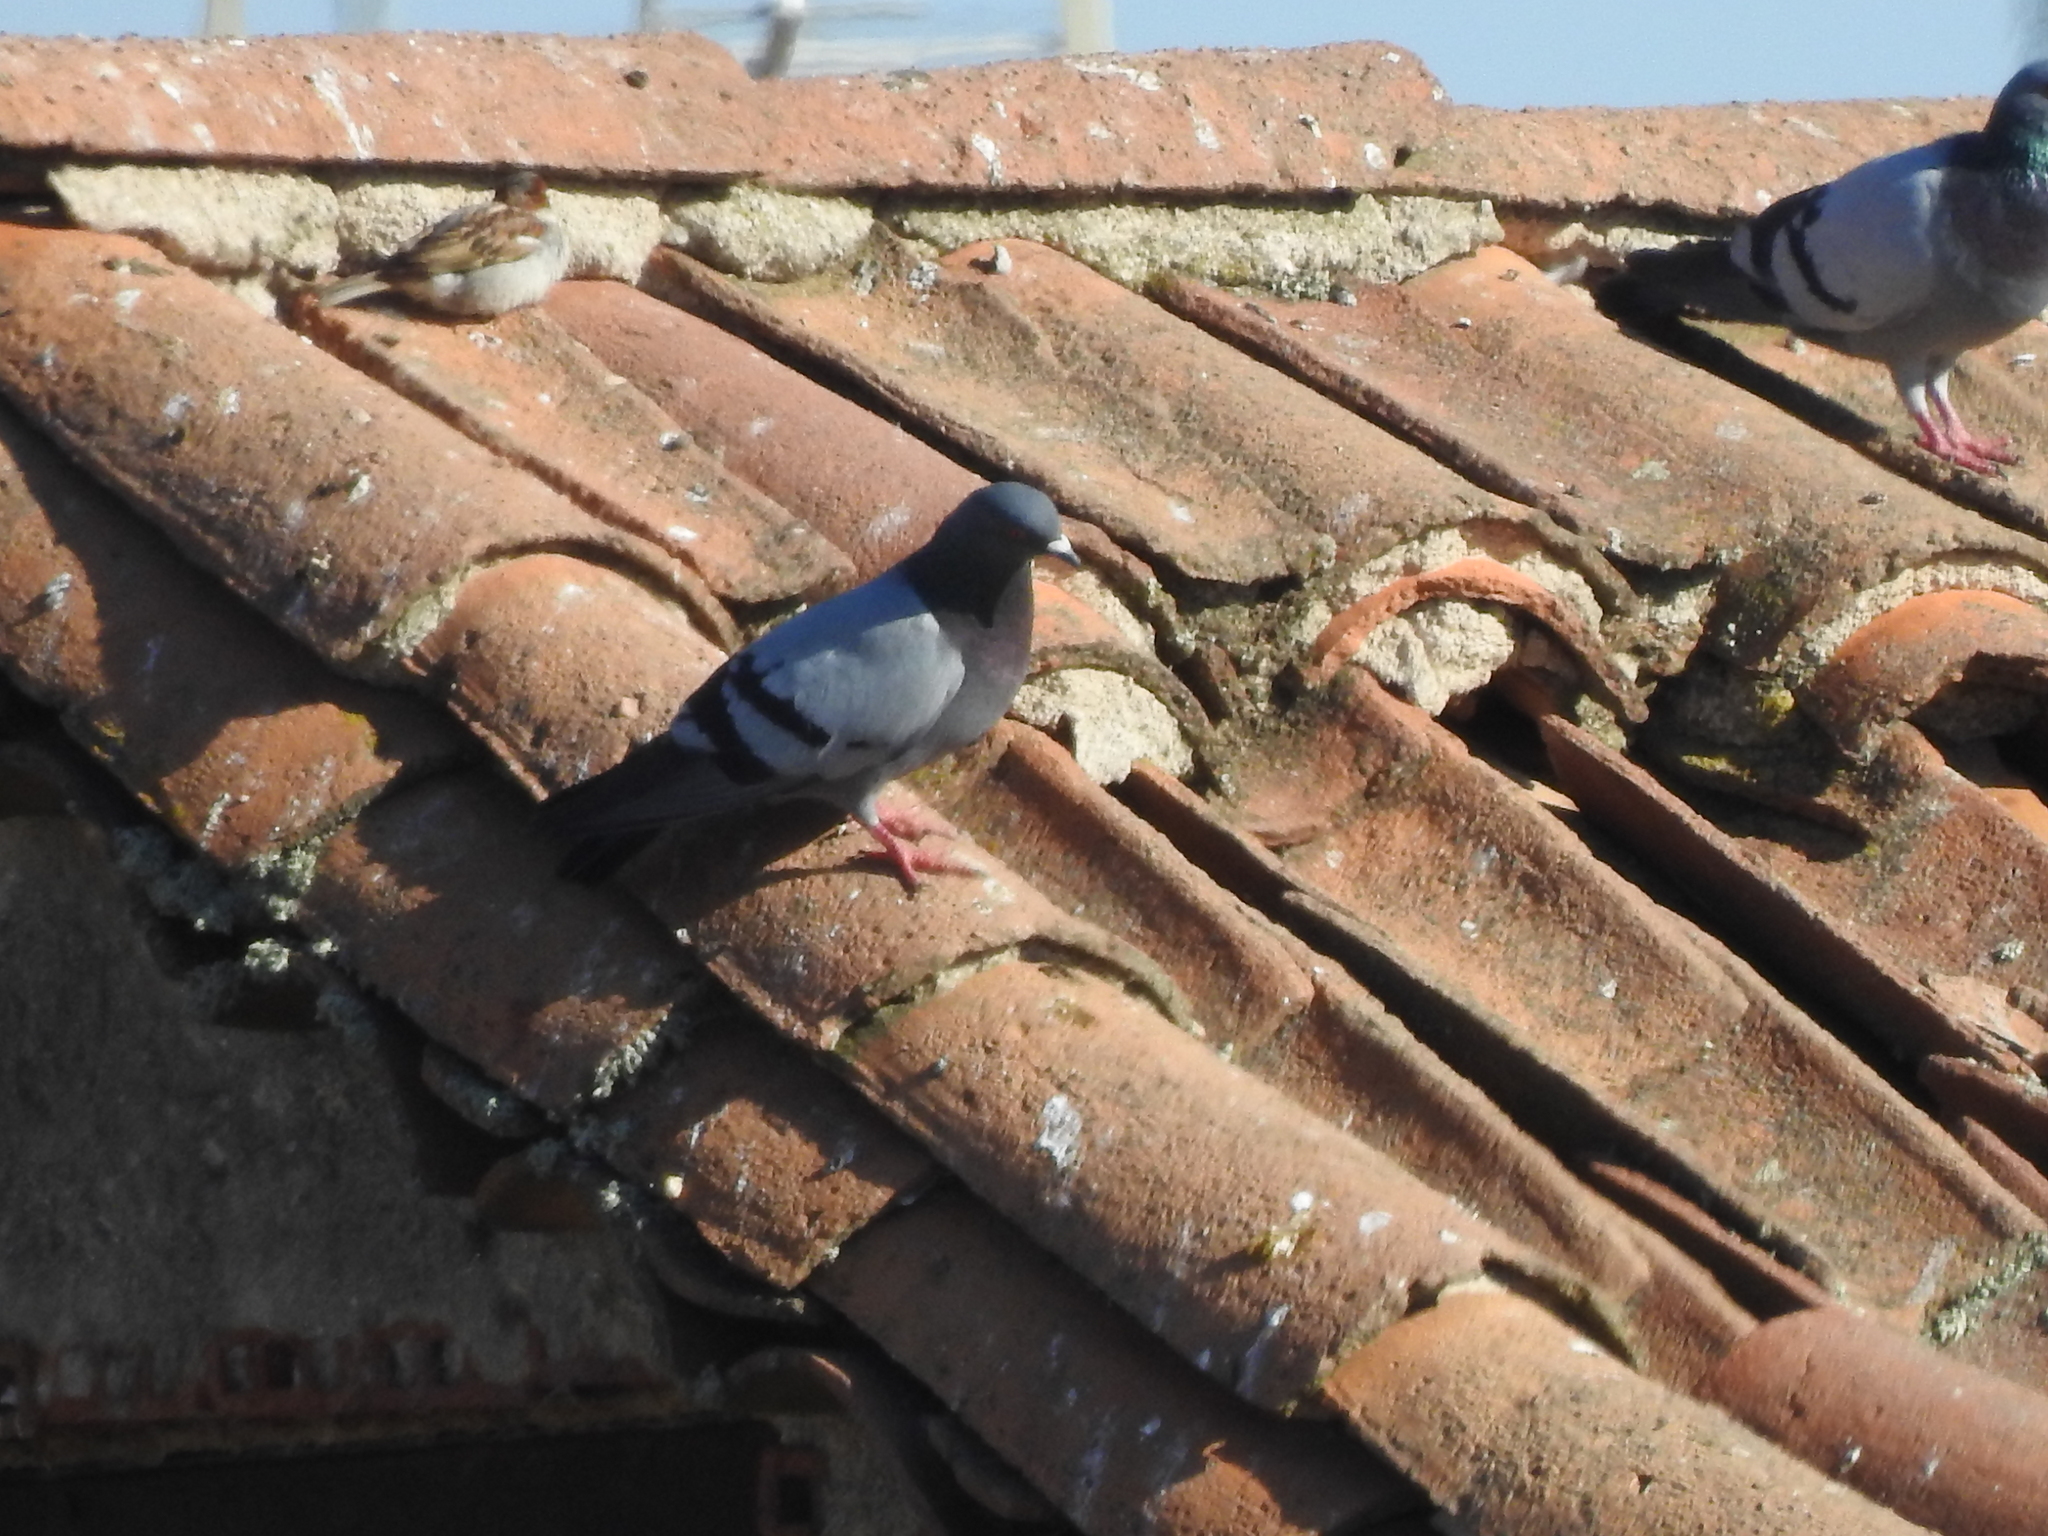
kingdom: Animalia
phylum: Chordata
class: Aves
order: Columbiformes
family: Columbidae
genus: Columba
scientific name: Columba livia
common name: Rock pigeon
